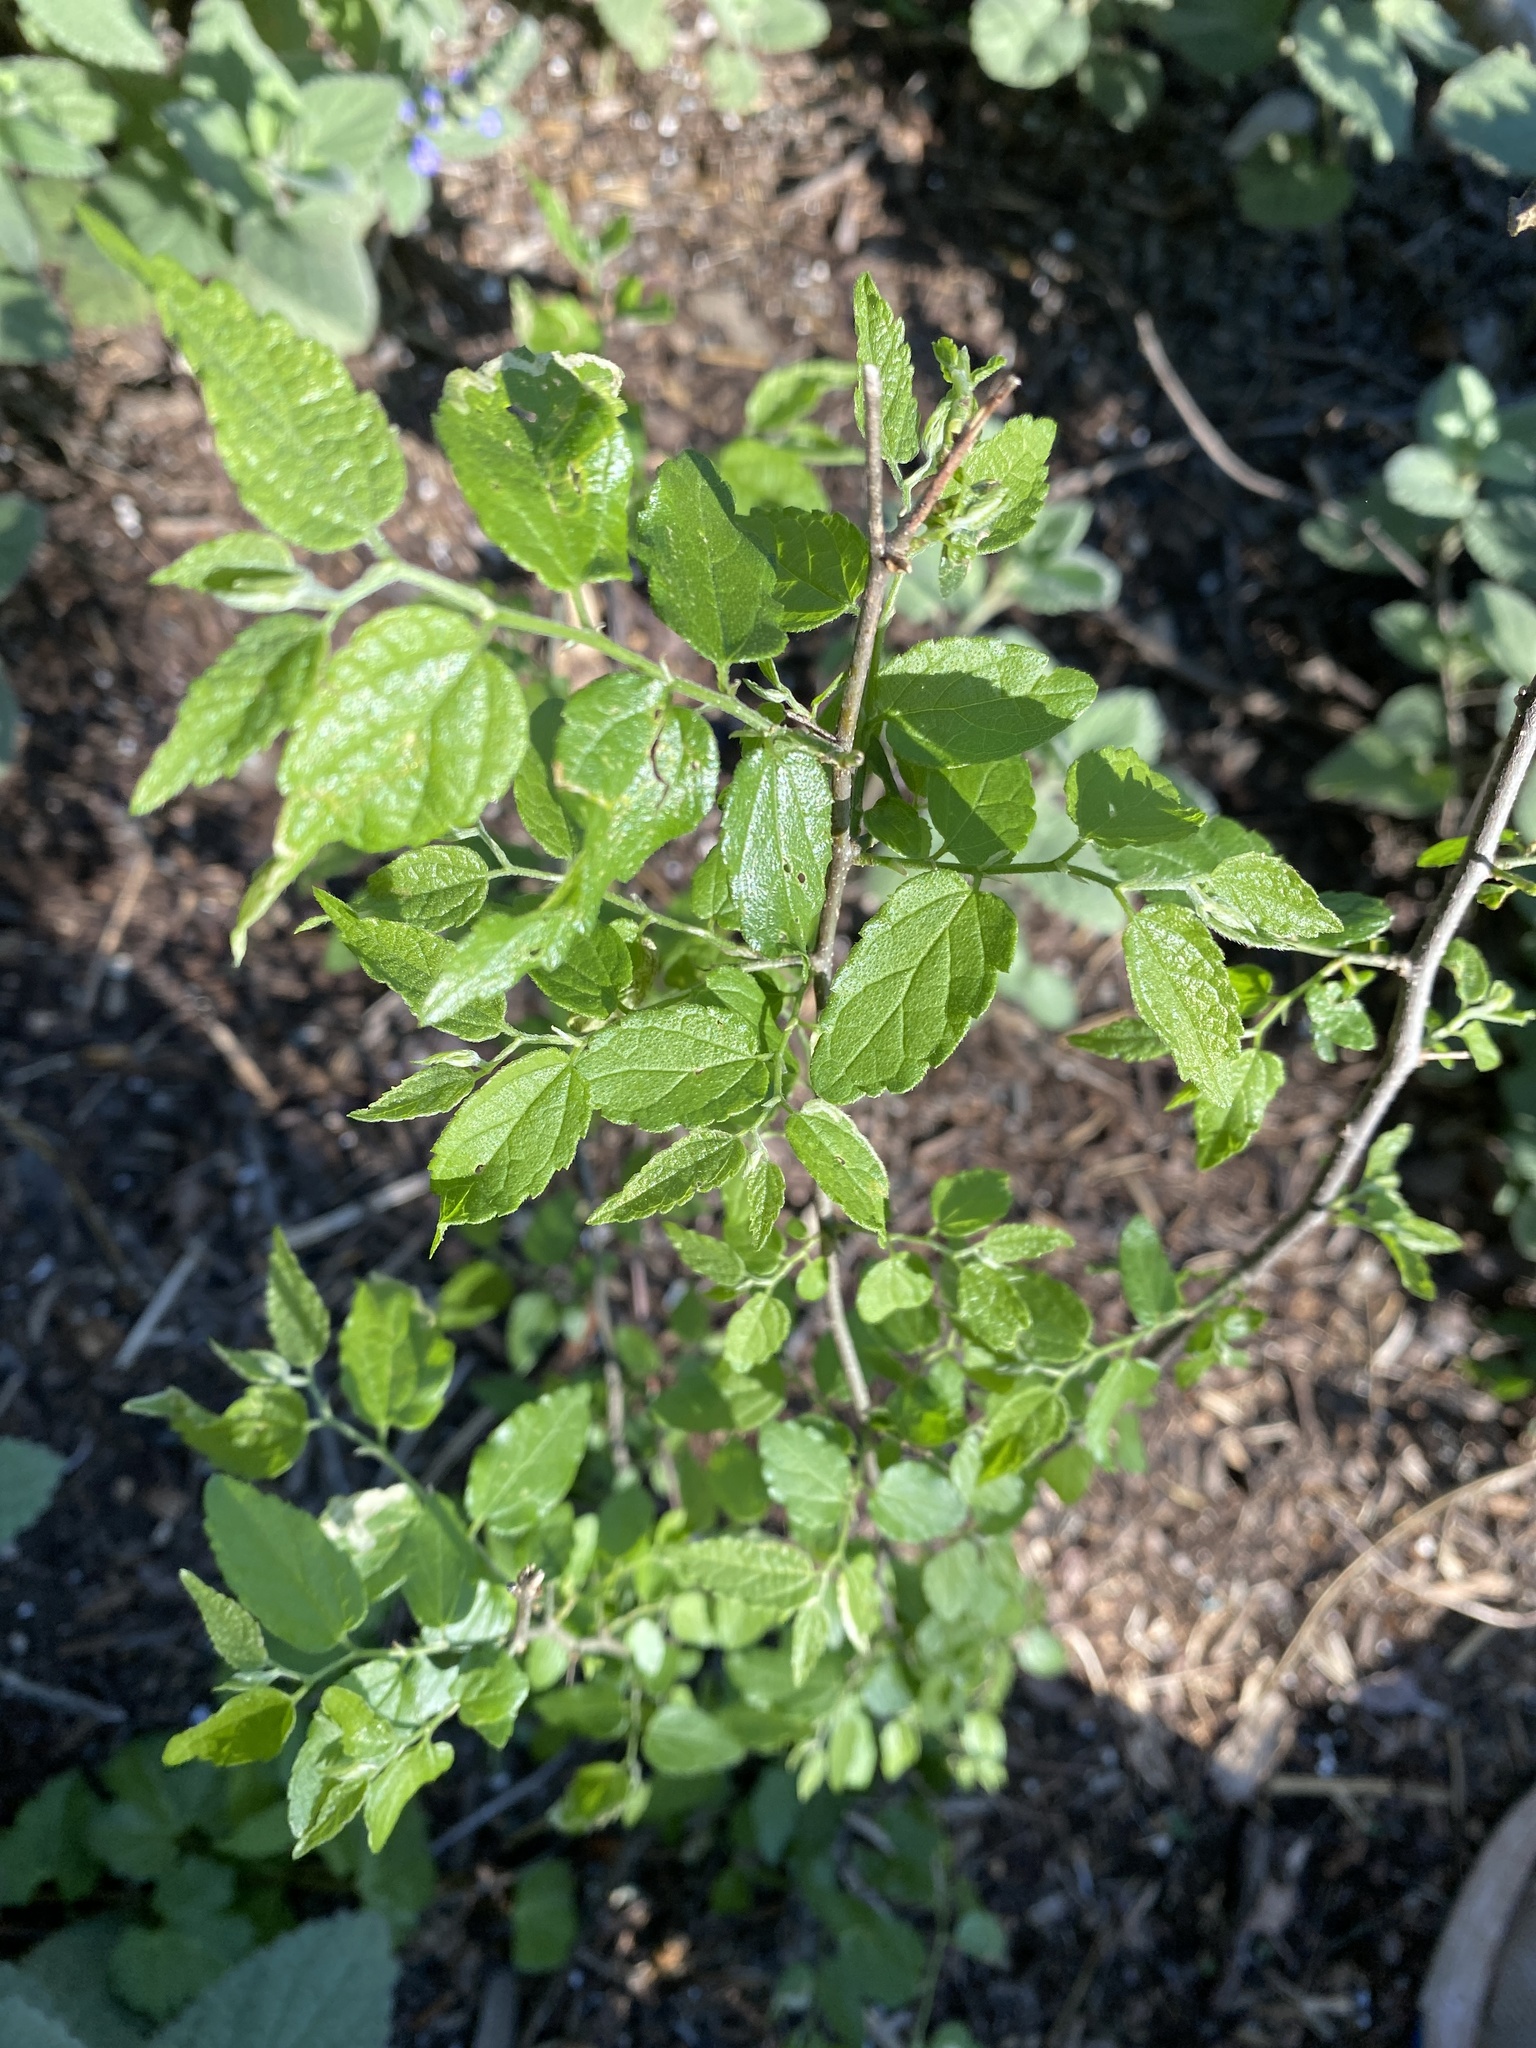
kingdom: Plantae
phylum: Tracheophyta
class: Magnoliopsida
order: Rosales
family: Cannabaceae
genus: Celtis
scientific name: Celtis laevigata
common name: Sugarberry
